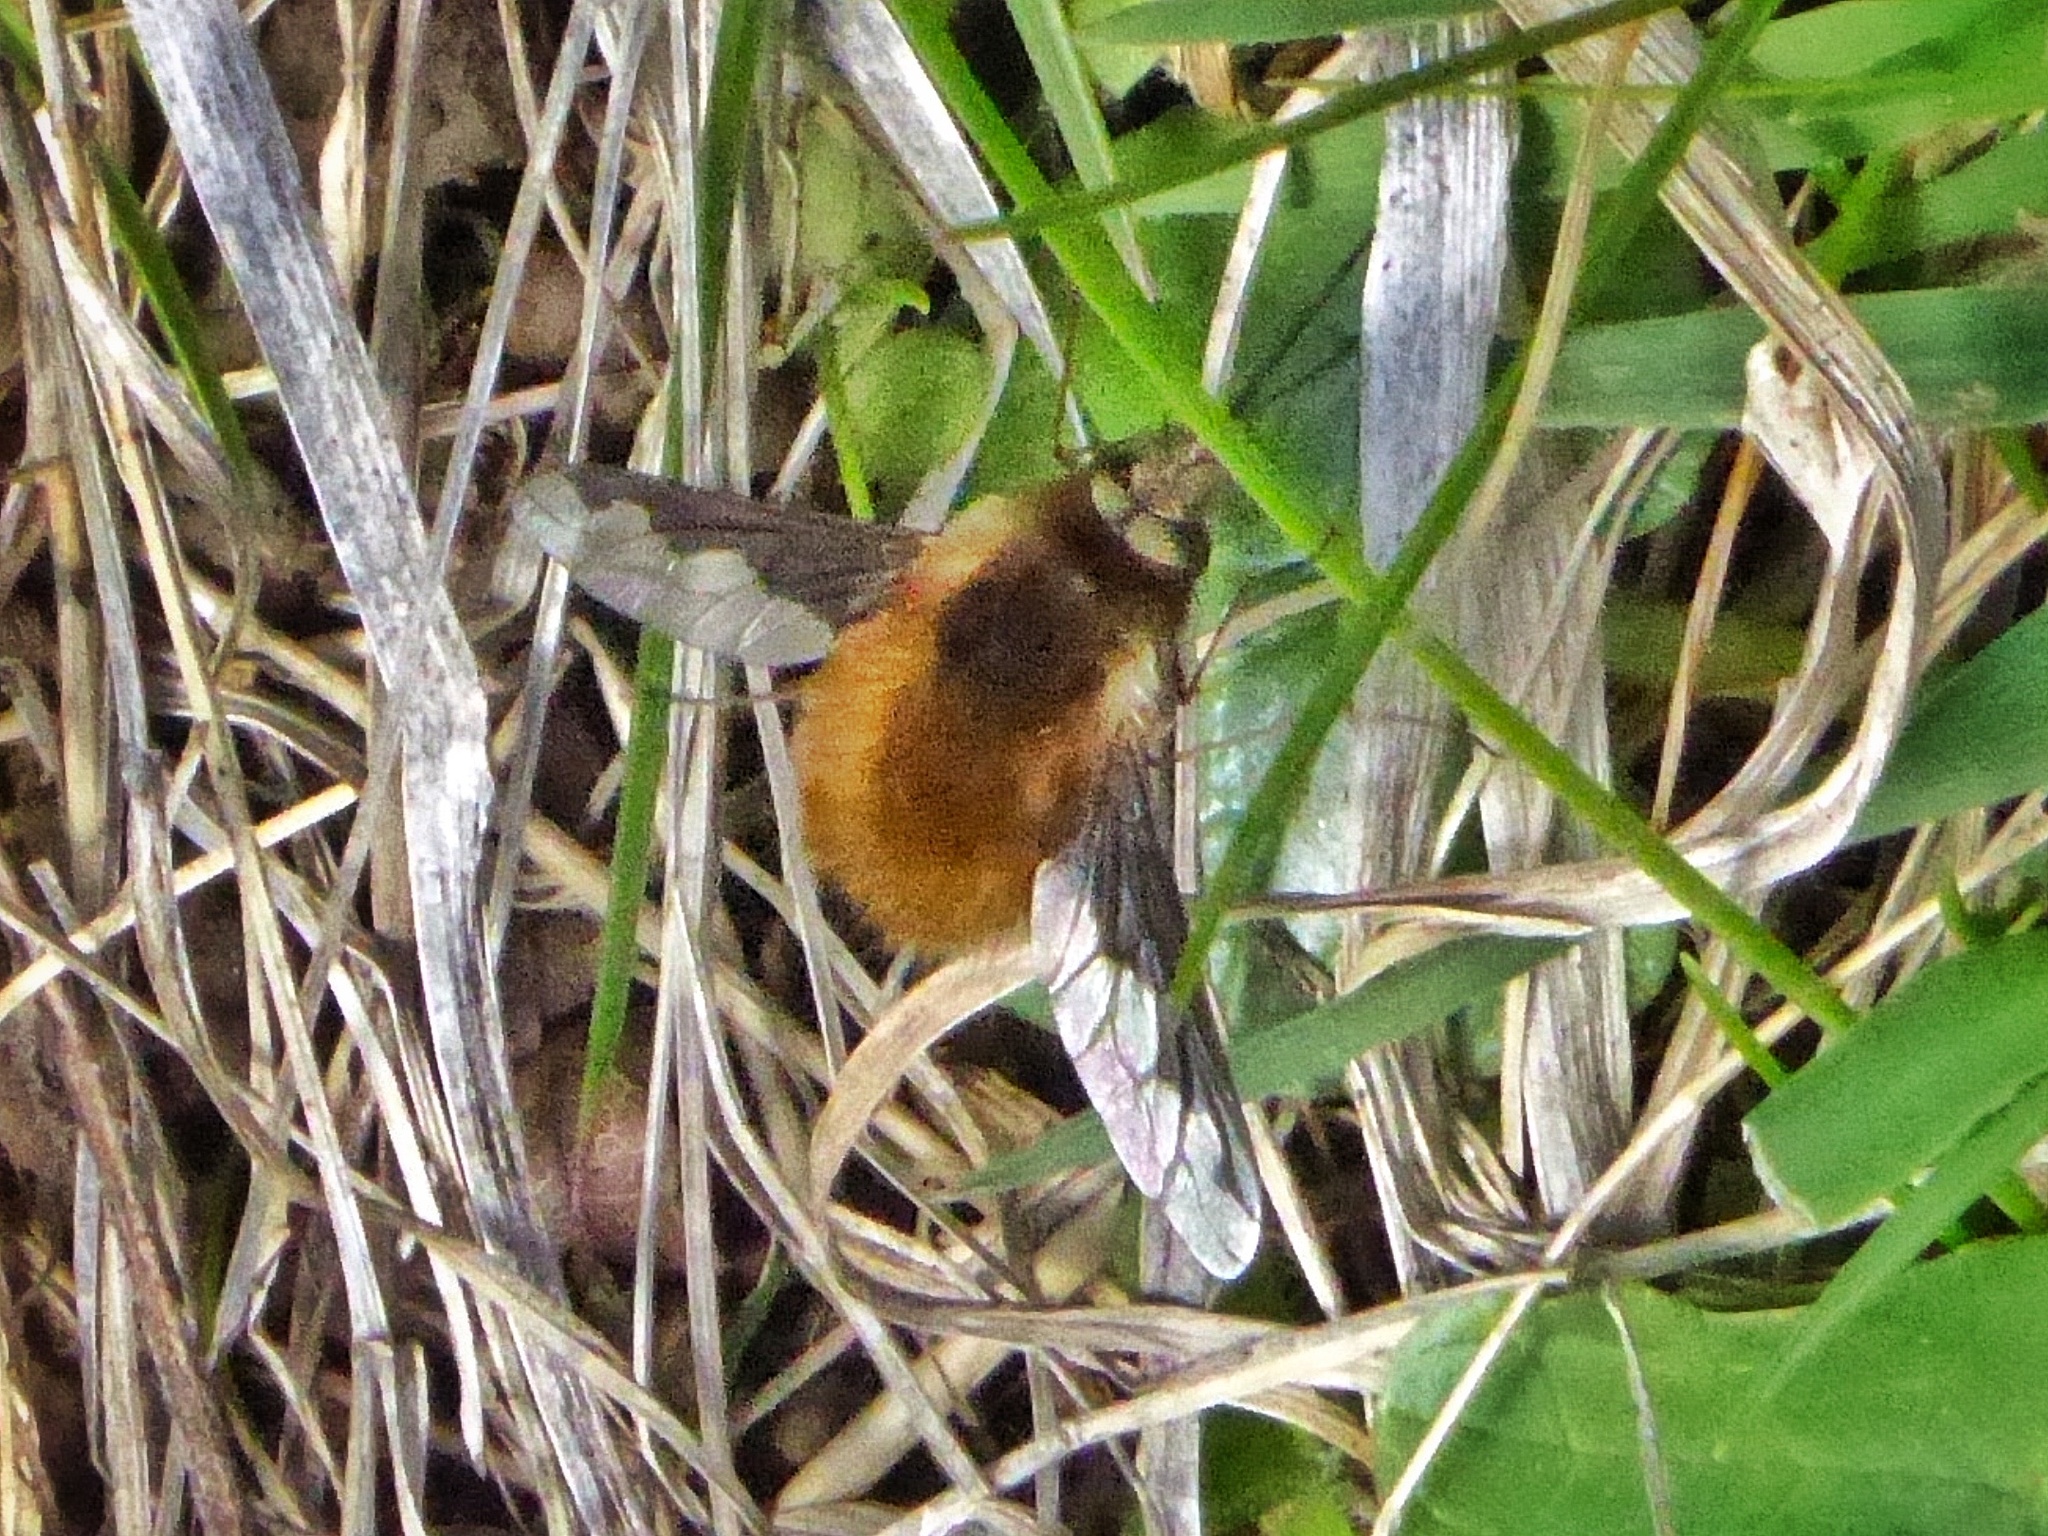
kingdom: Animalia
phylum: Arthropoda
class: Insecta
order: Diptera
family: Bombyliidae
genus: Bombylius
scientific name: Bombylius major
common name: Bee fly
